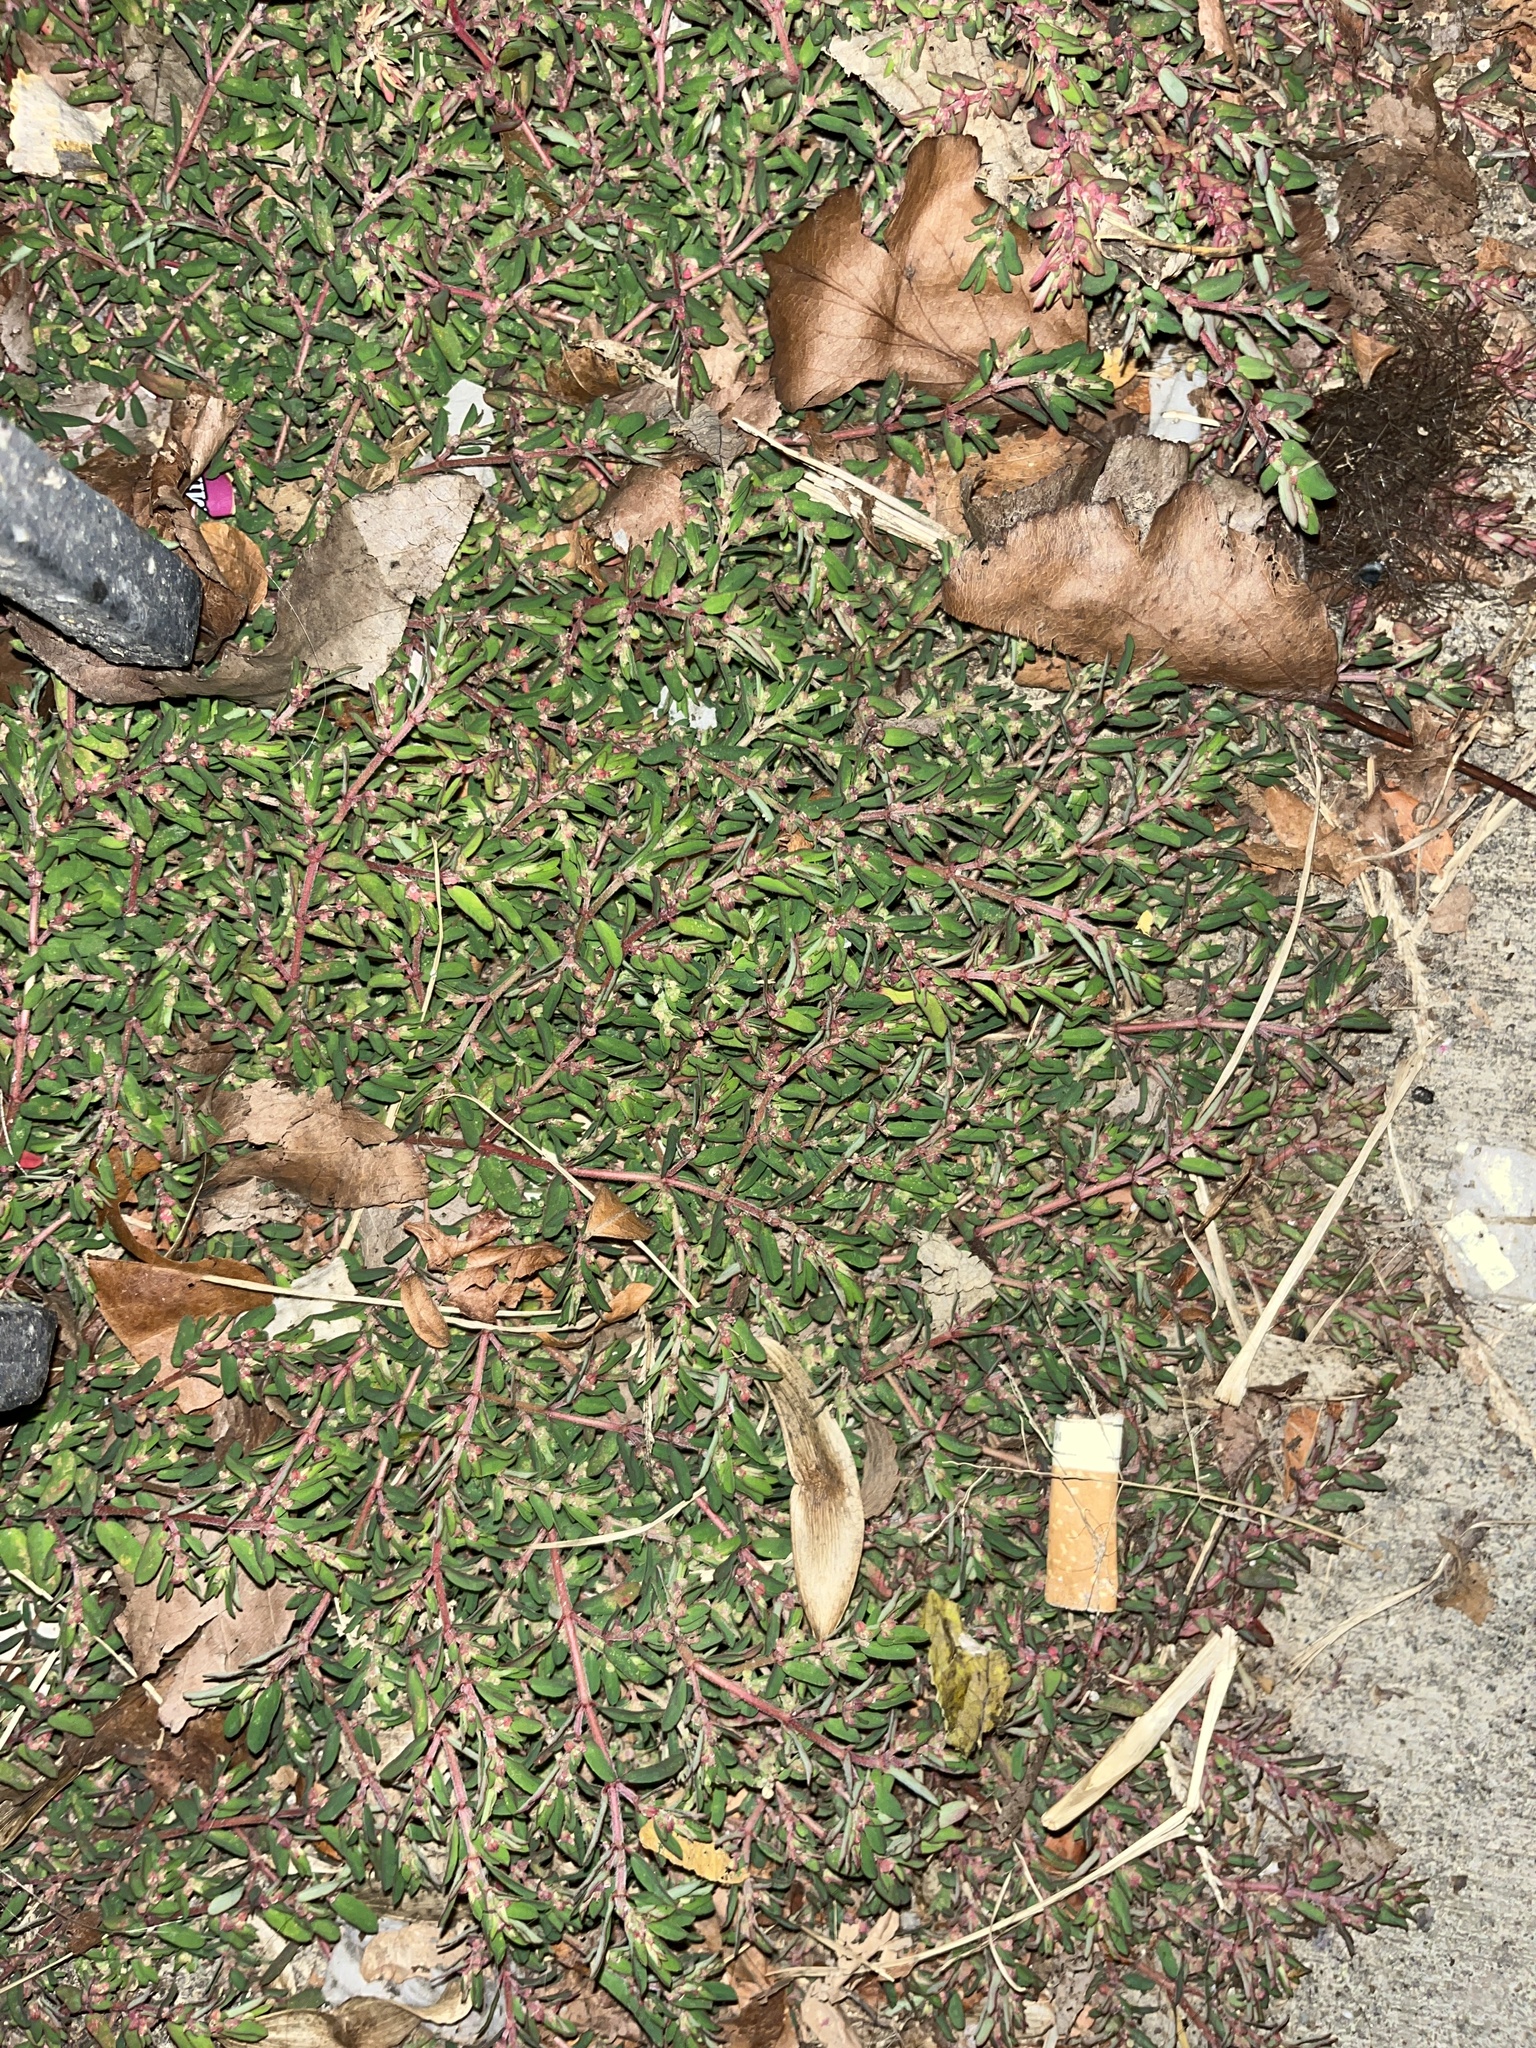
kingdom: Plantae
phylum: Tracheophyta
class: Magnoliopsida
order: Malpighiales
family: Euphorbiaceae
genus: Euphorbia
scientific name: Euphorbia maculata
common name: Spotted spurge
